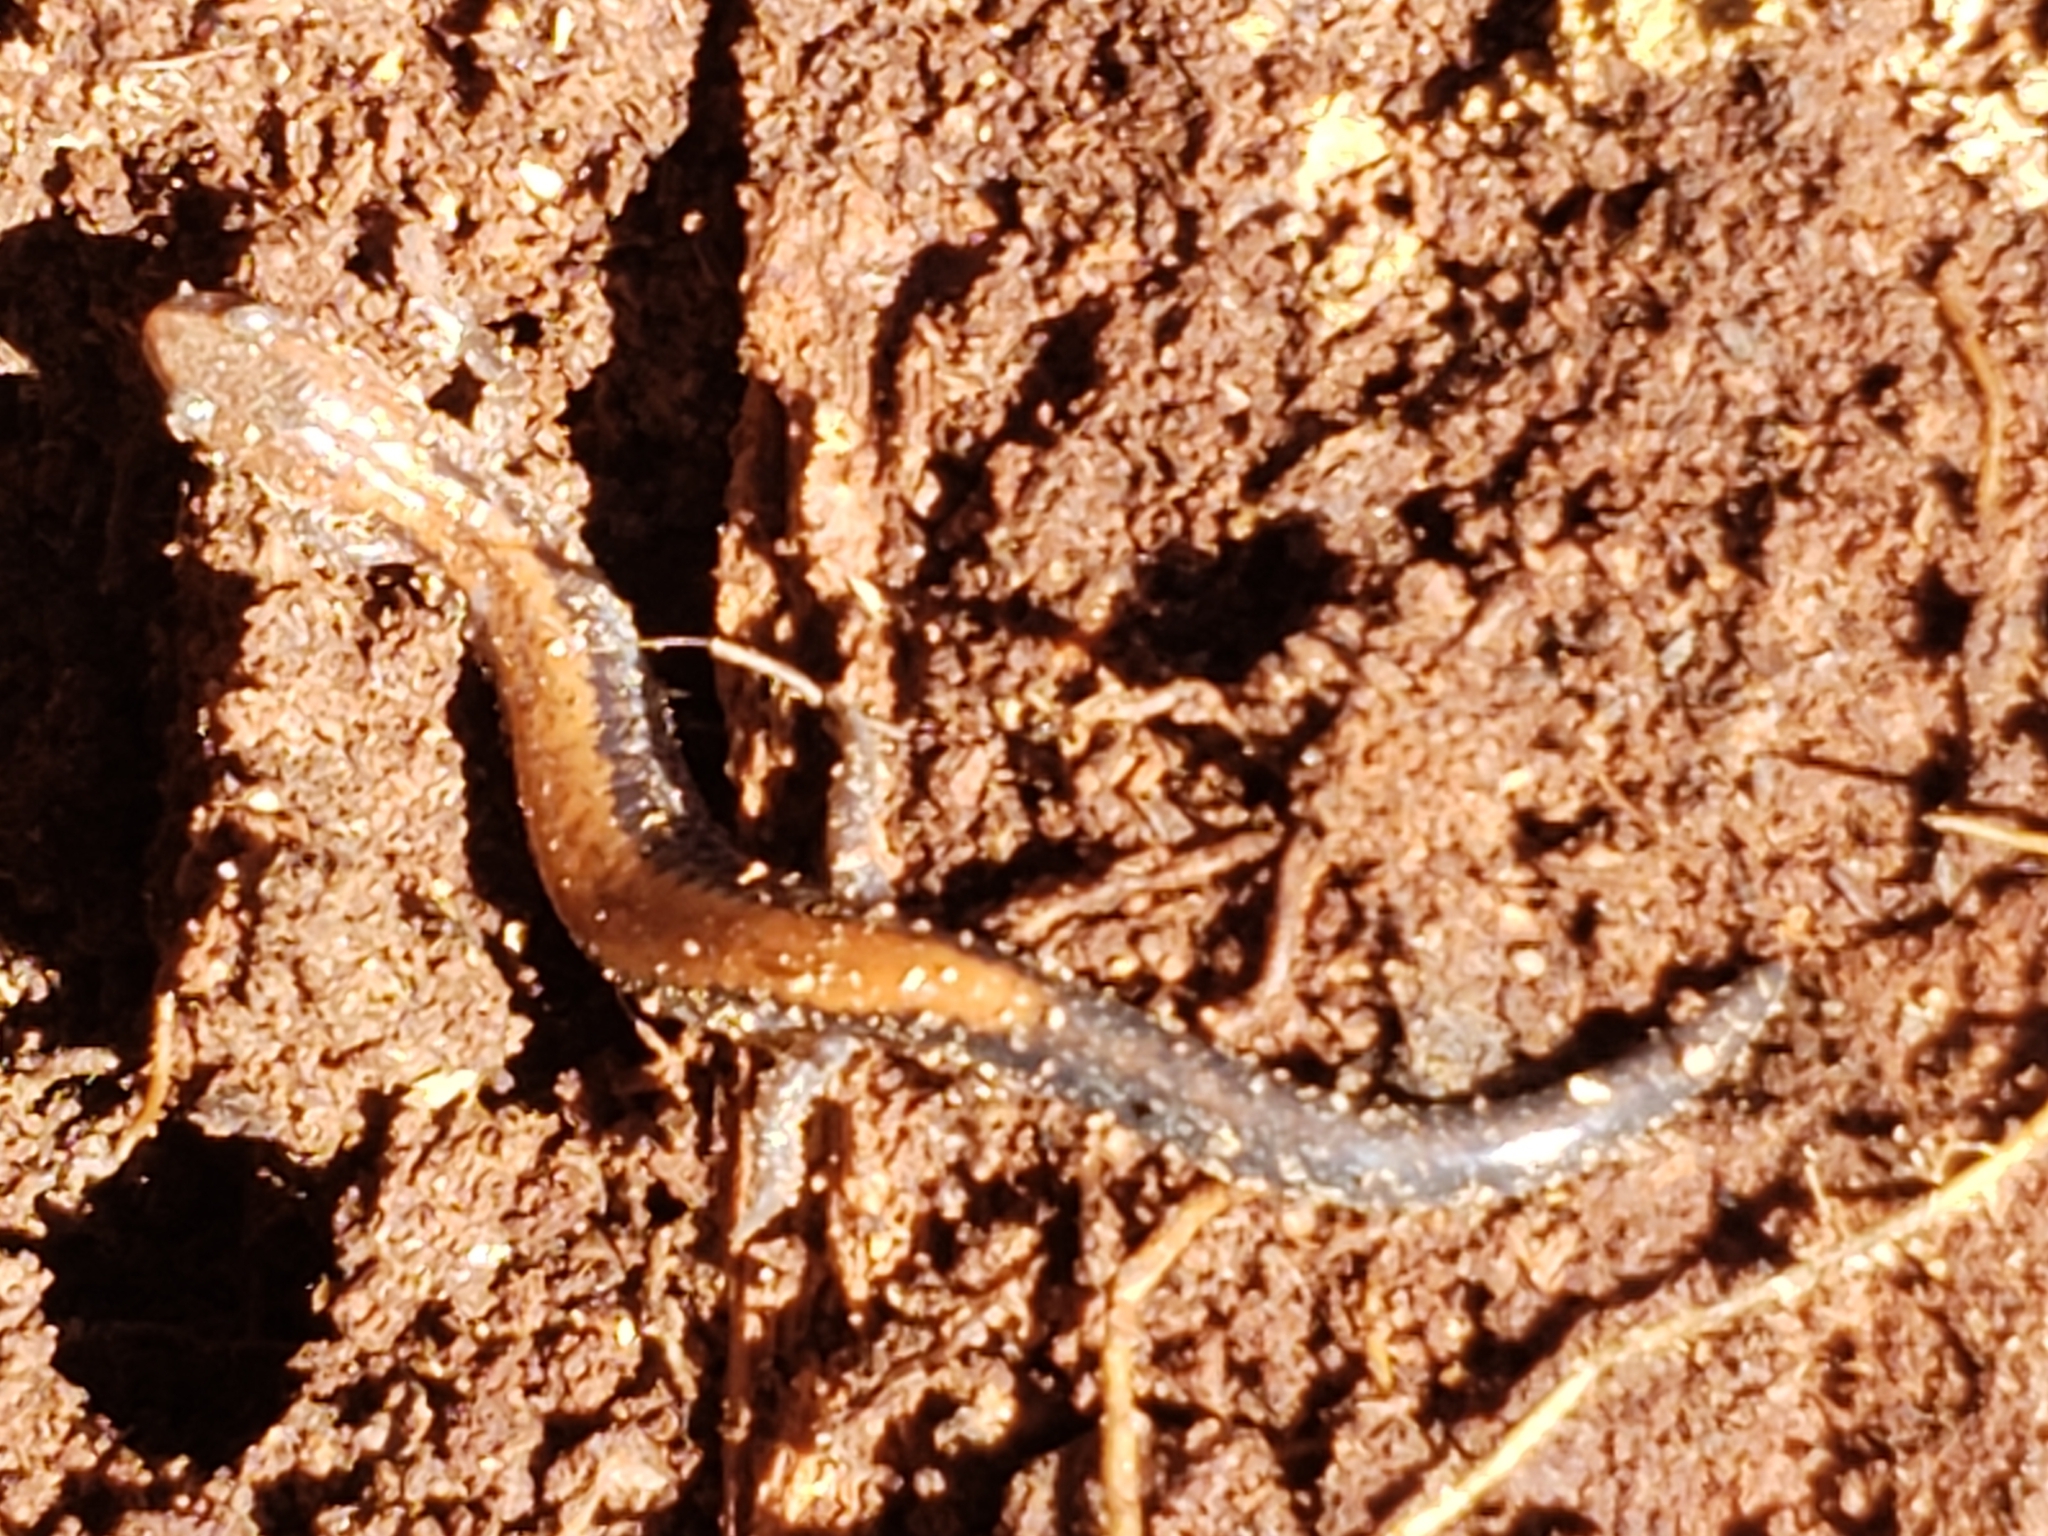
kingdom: Animalia
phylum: Chordata
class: Amphibia
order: Caudata
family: Plethodontidae
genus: Plethodon
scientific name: Plethodon cinereus
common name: Redback salamander
